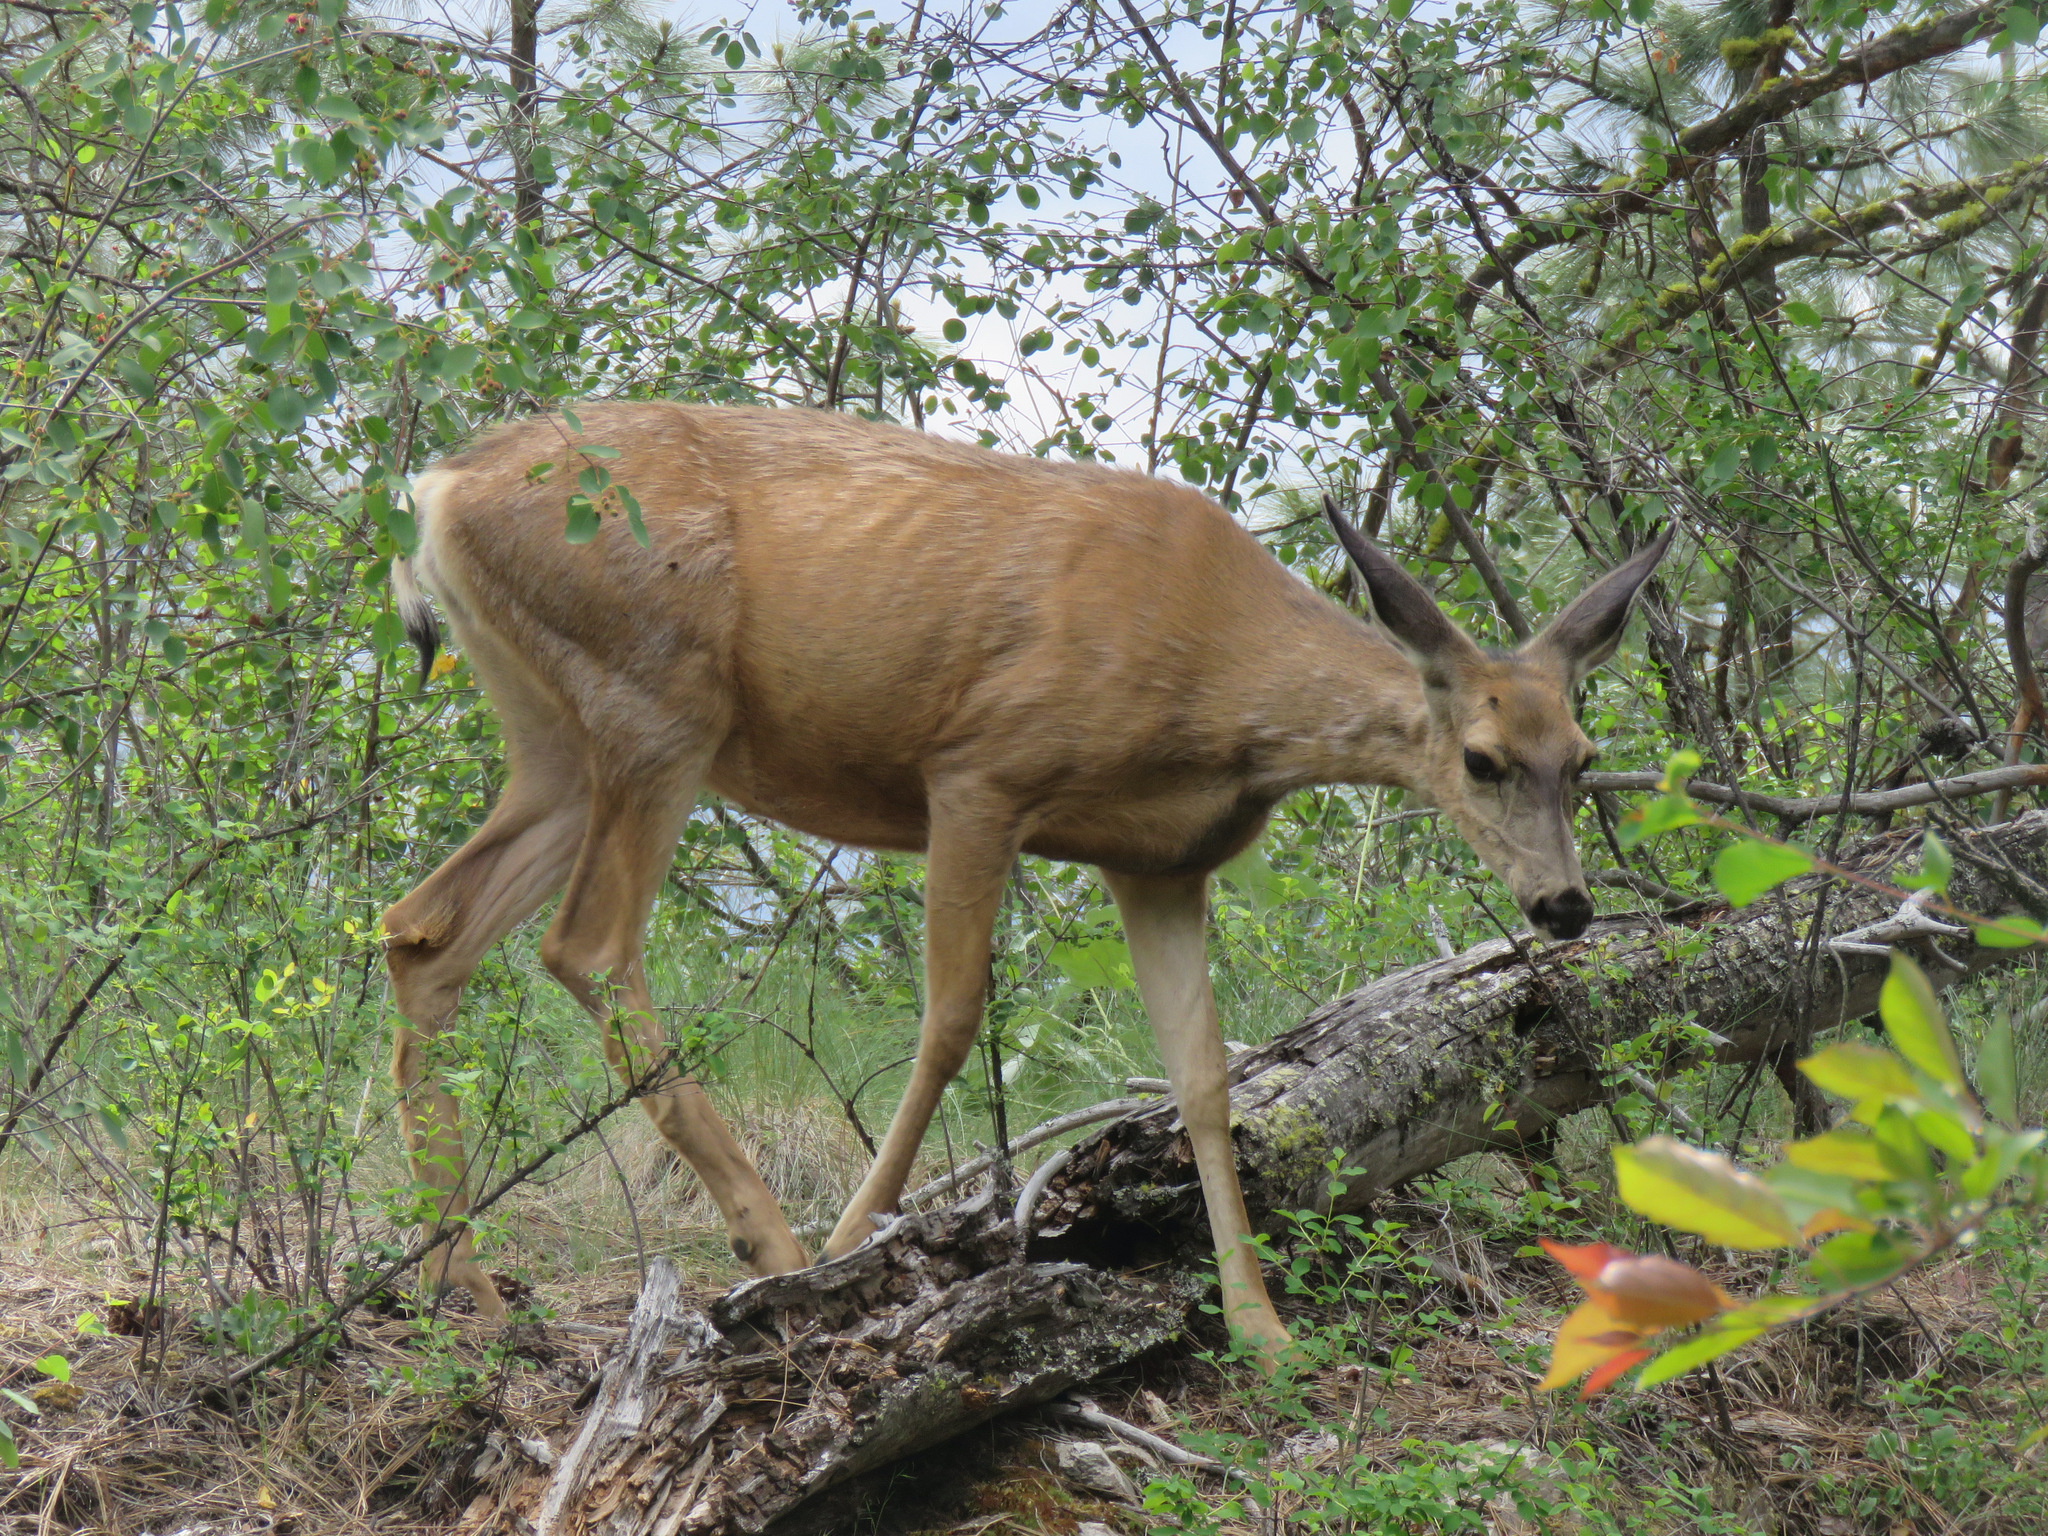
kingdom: Animalia
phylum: Chordata
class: Mammalia
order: Artiodactyla
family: Cervidae
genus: Odocoileus
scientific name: Odocoileus hemionus
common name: Mule deer
